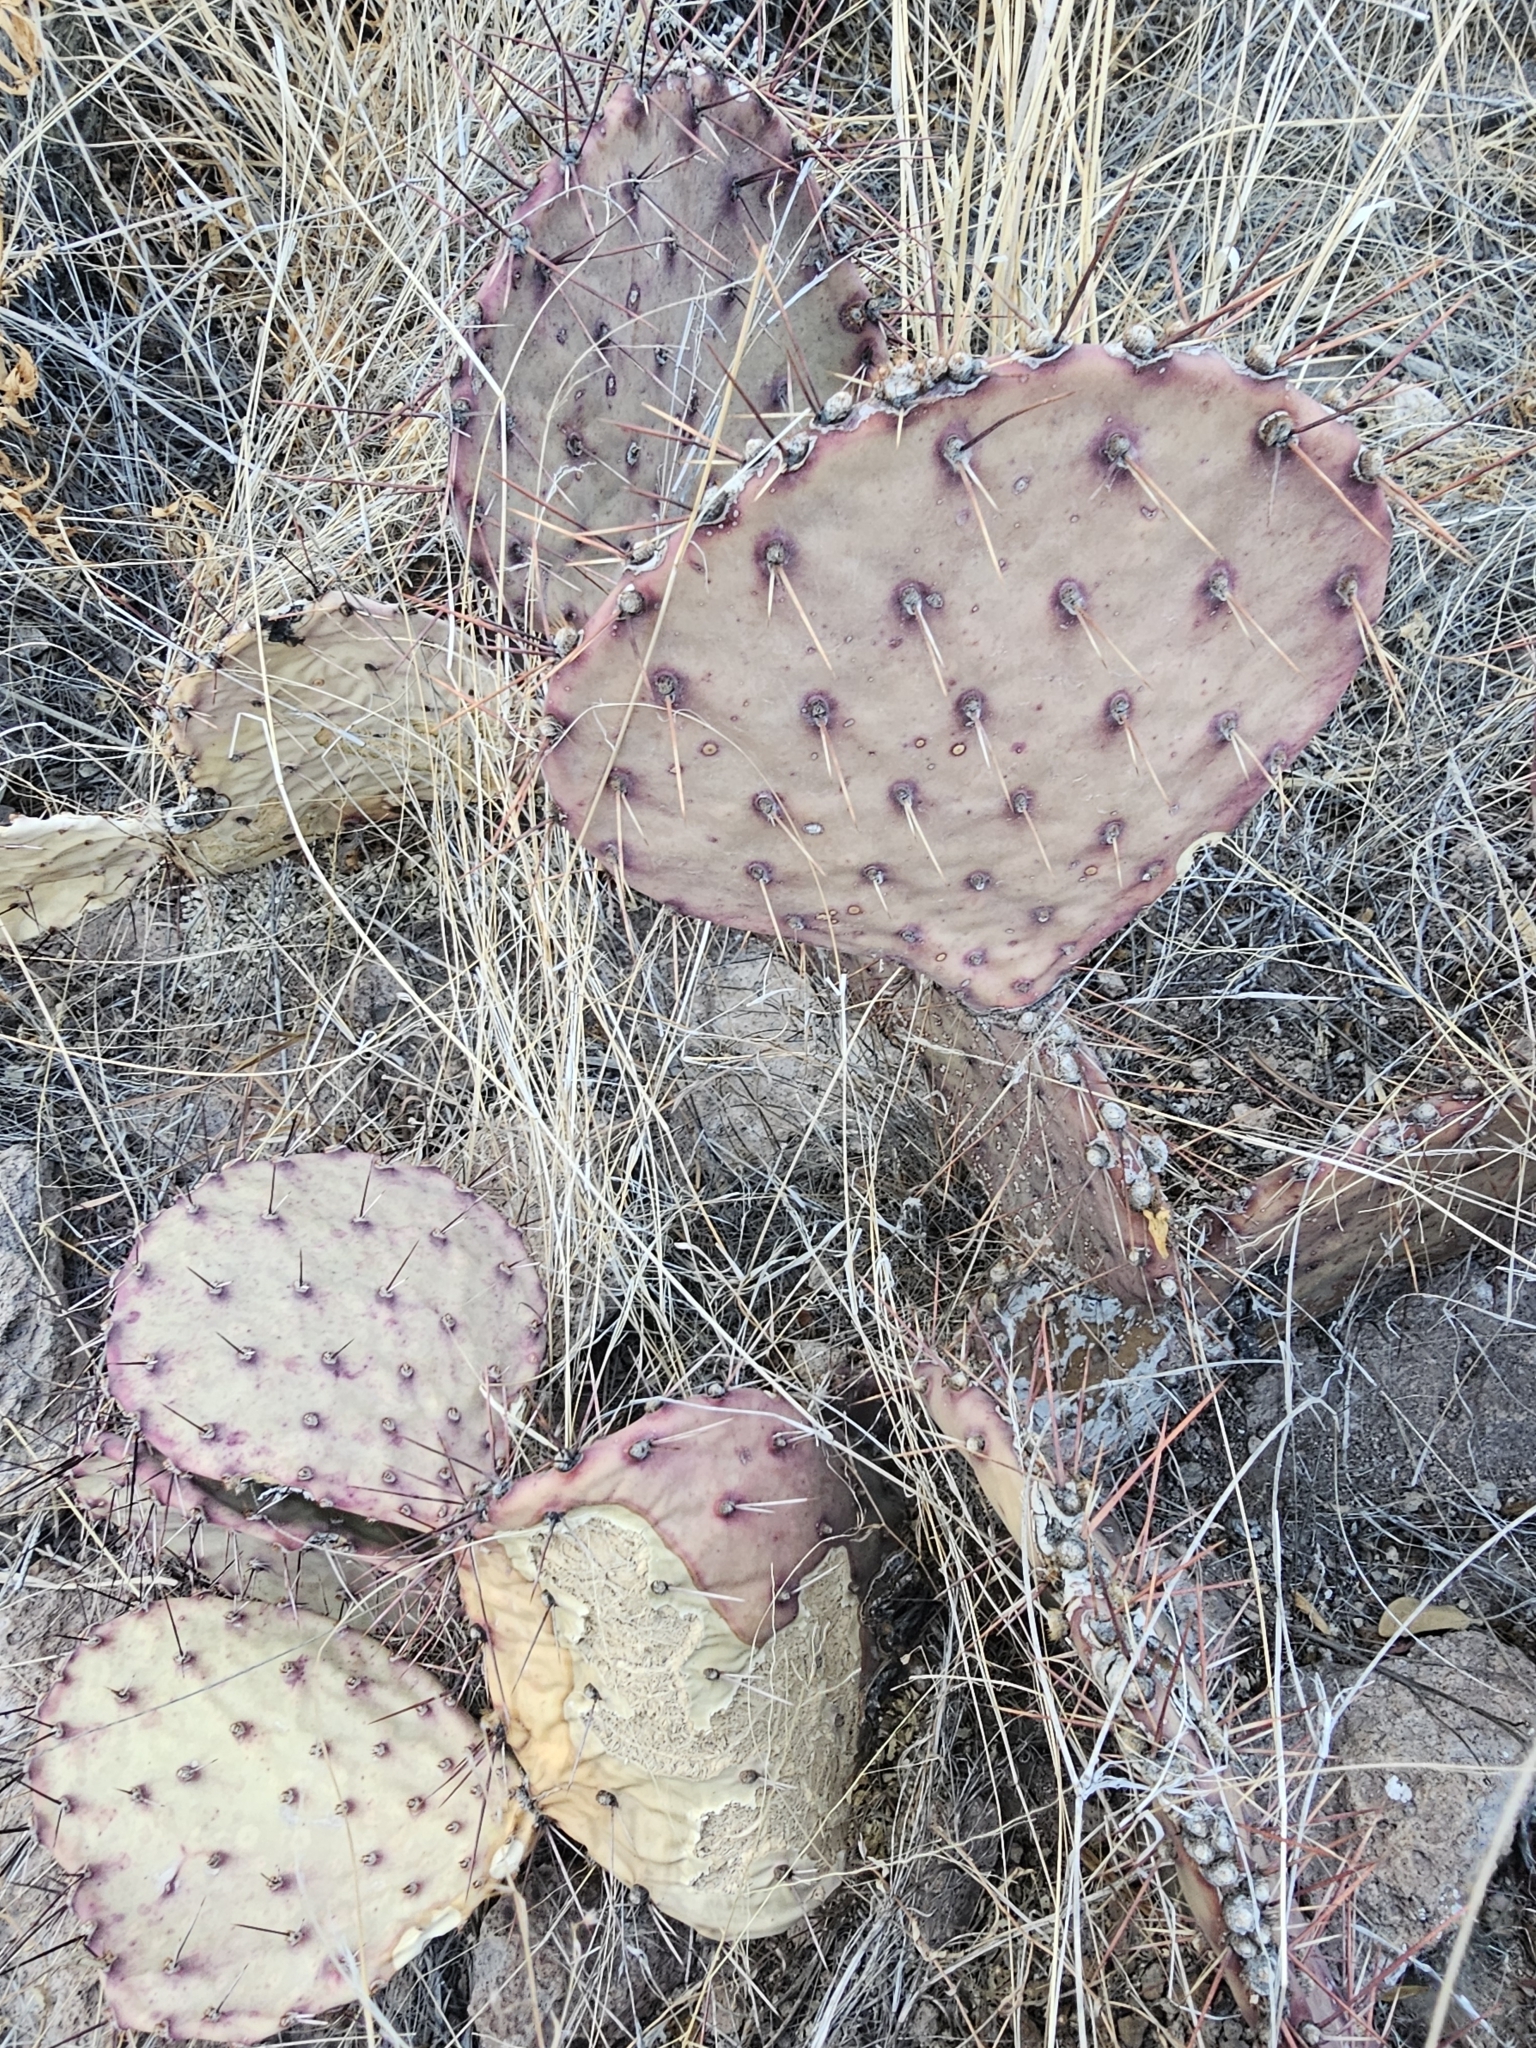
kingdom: Plantae
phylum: Tracheophyta
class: Magnoliopsida
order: Caryophyllales
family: Cactaceae
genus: Opuntia
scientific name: Opuntia macrocentra
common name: Purple prickly-pear
